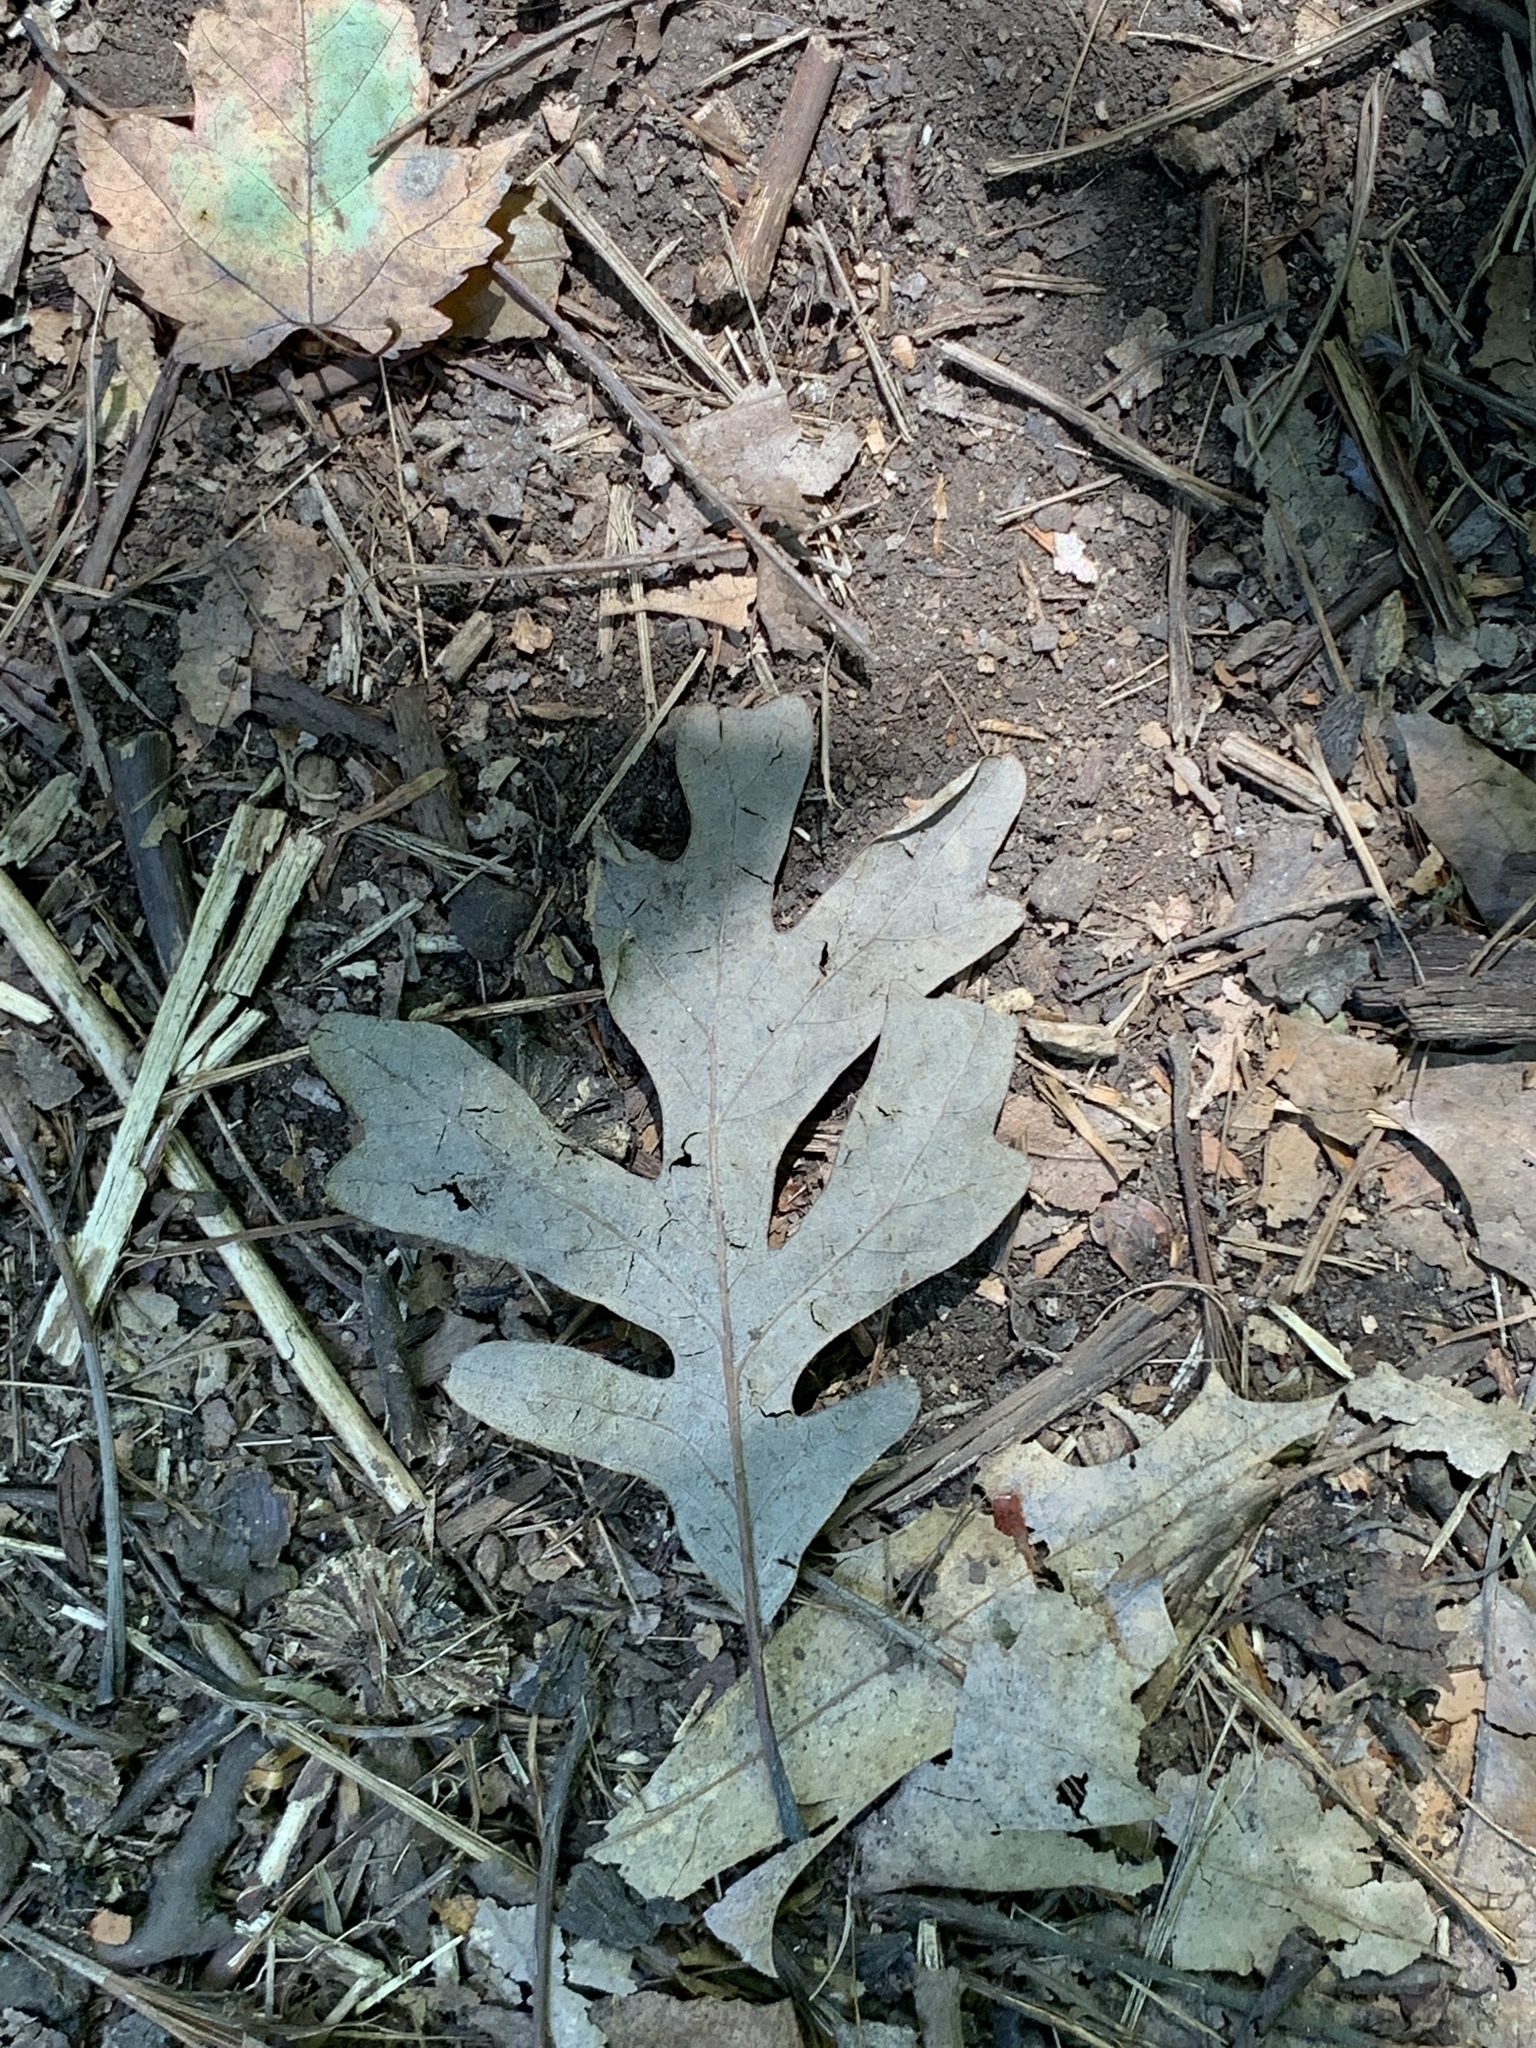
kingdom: Plantae
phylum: Tracheophyta
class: Magnoliopsida
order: Fagales
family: Fagaceae
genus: Quercus
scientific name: Quercus alba
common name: White oak
